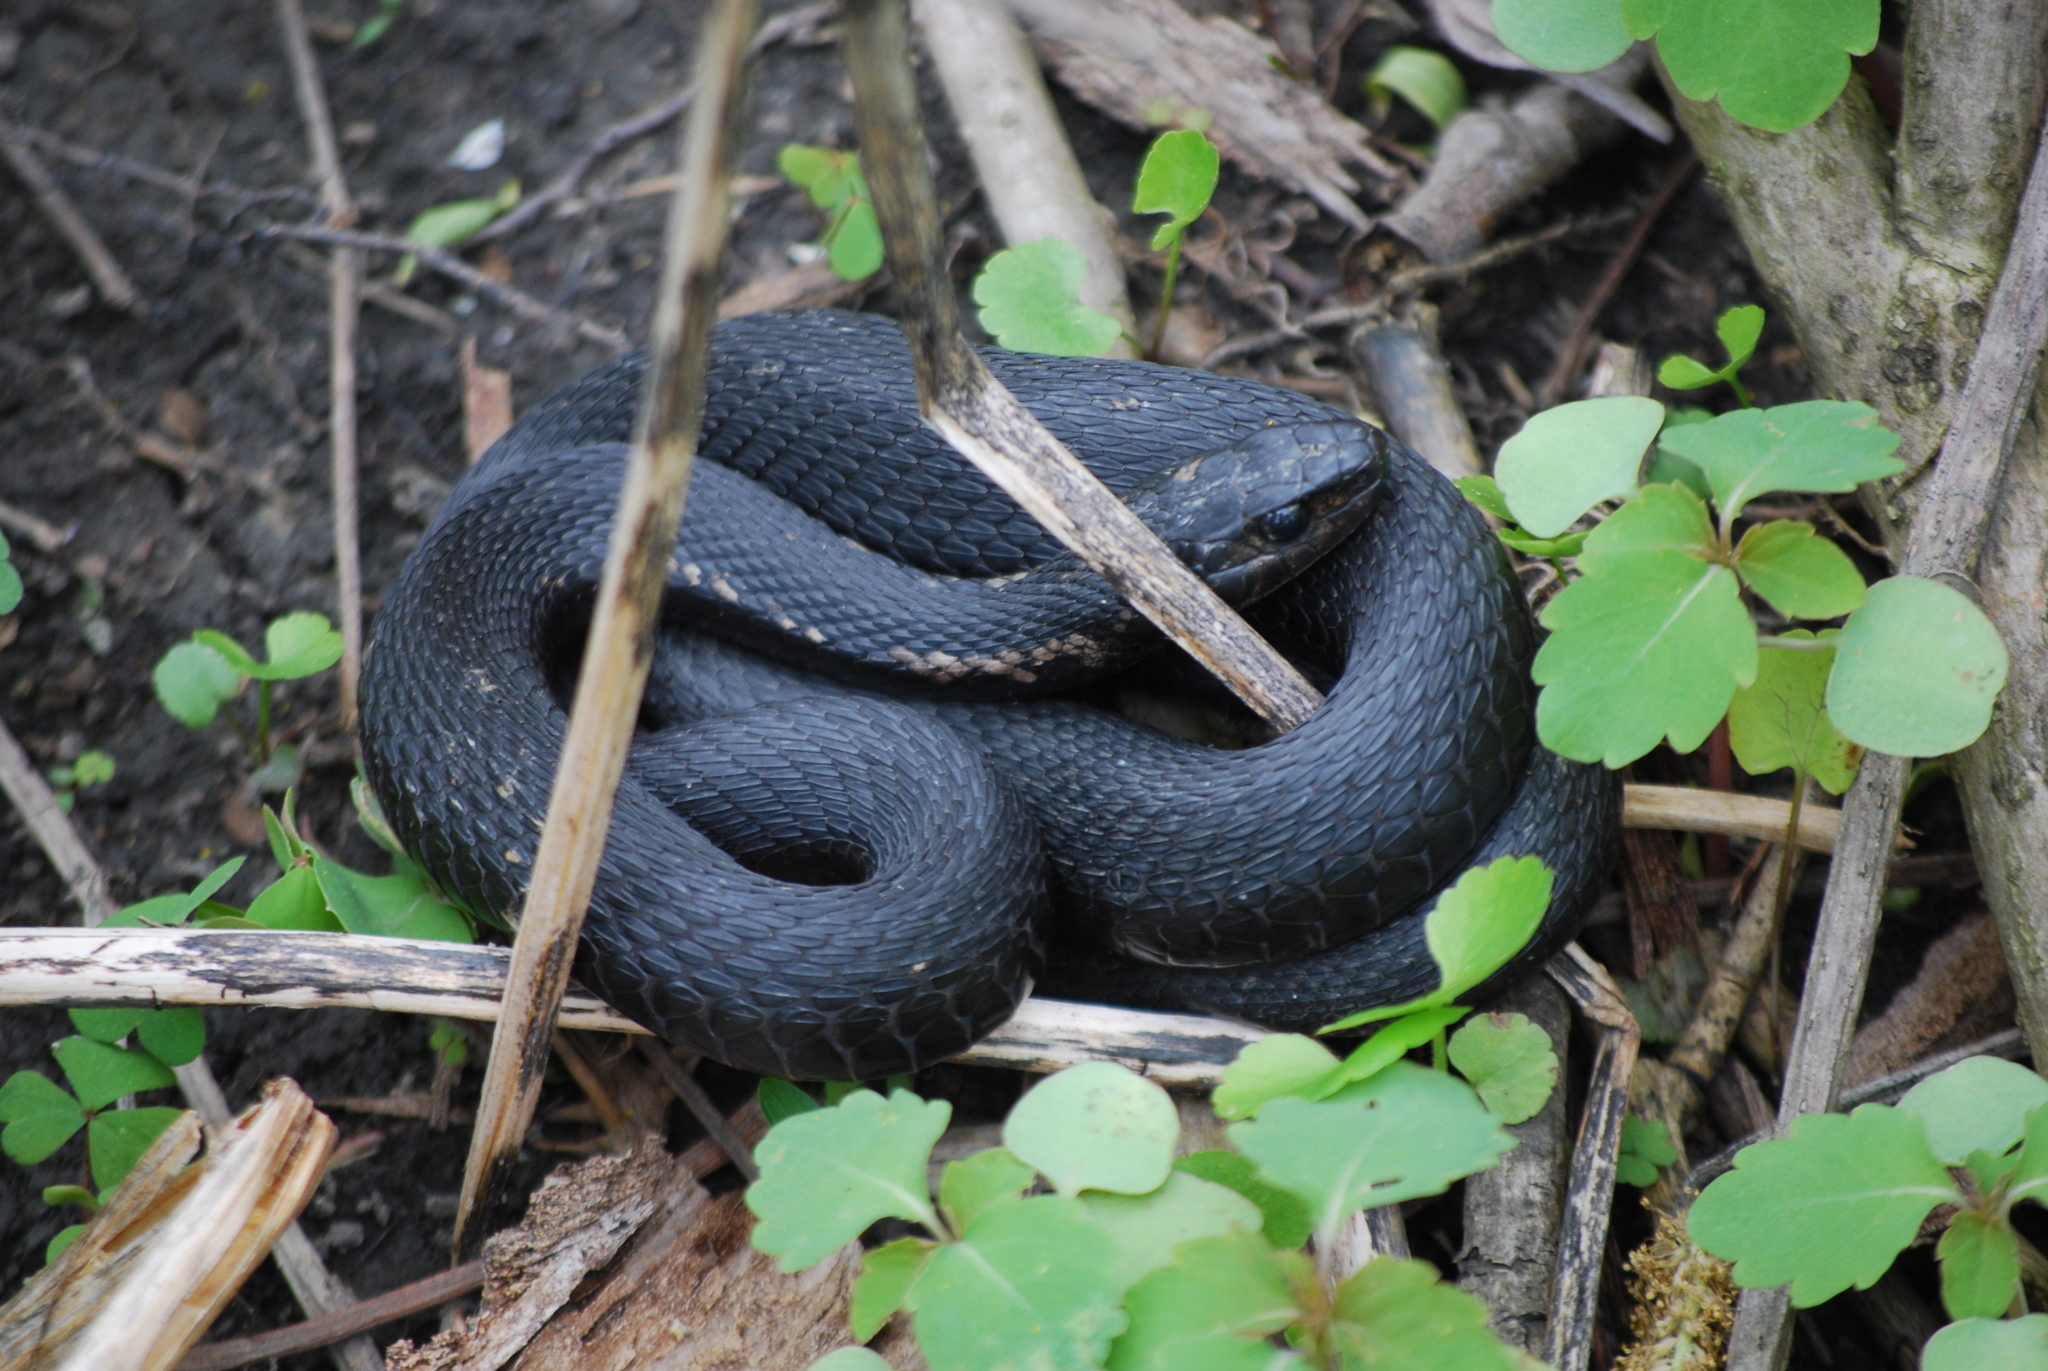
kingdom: Animalia
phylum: Chordata
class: Squamata
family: Colubridae
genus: Thamnophis
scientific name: Thamnophis sirtalis
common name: Common garter snake
